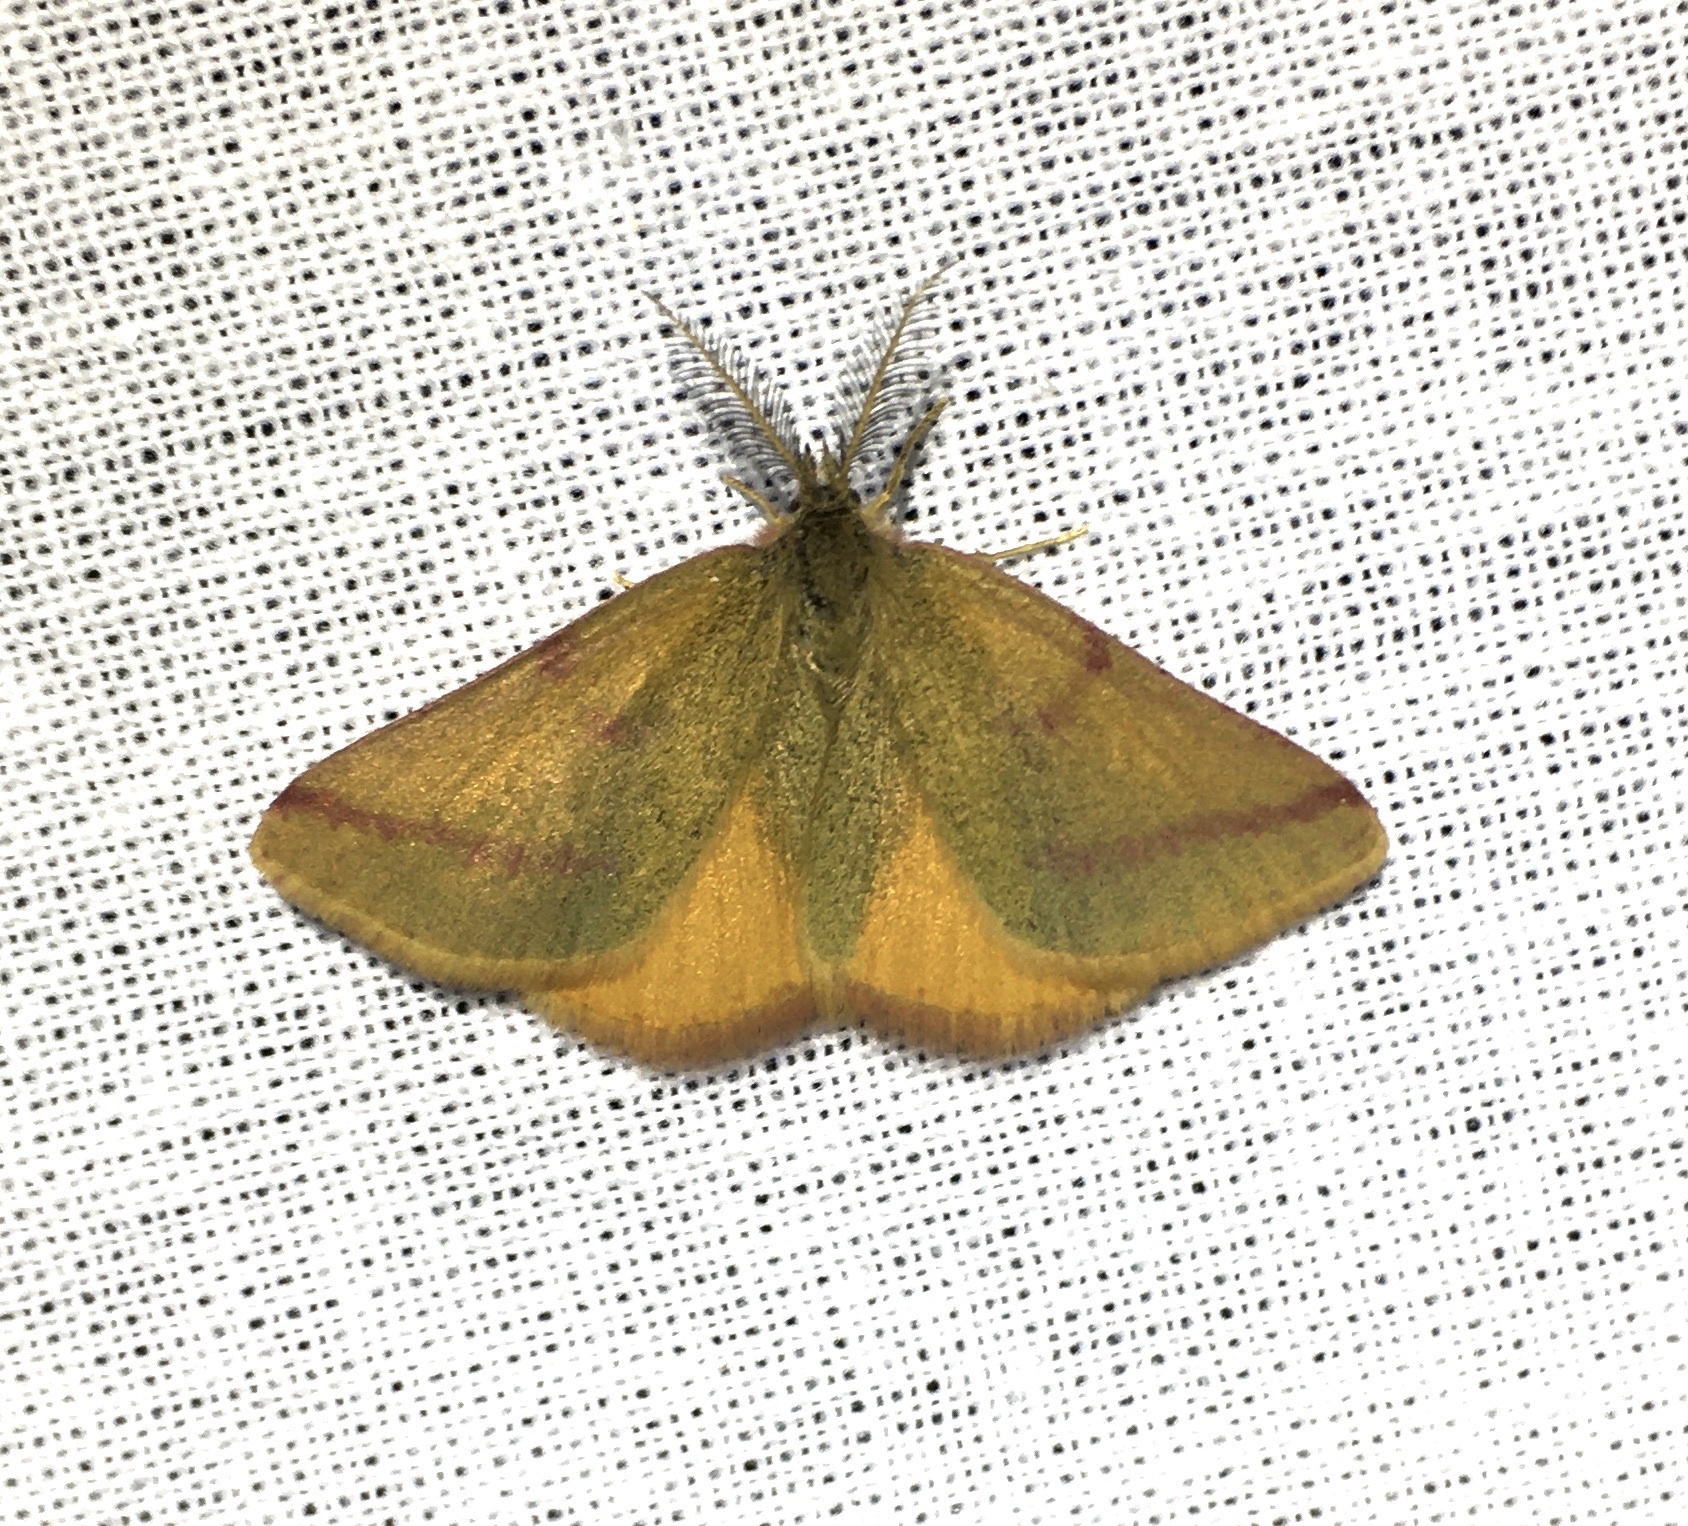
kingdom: Animalia
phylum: Arthropoda
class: Insecta
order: Lepidoptera
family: Geometridae
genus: Lythria
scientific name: Lythria purpuraria
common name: Purple-barred yellow
